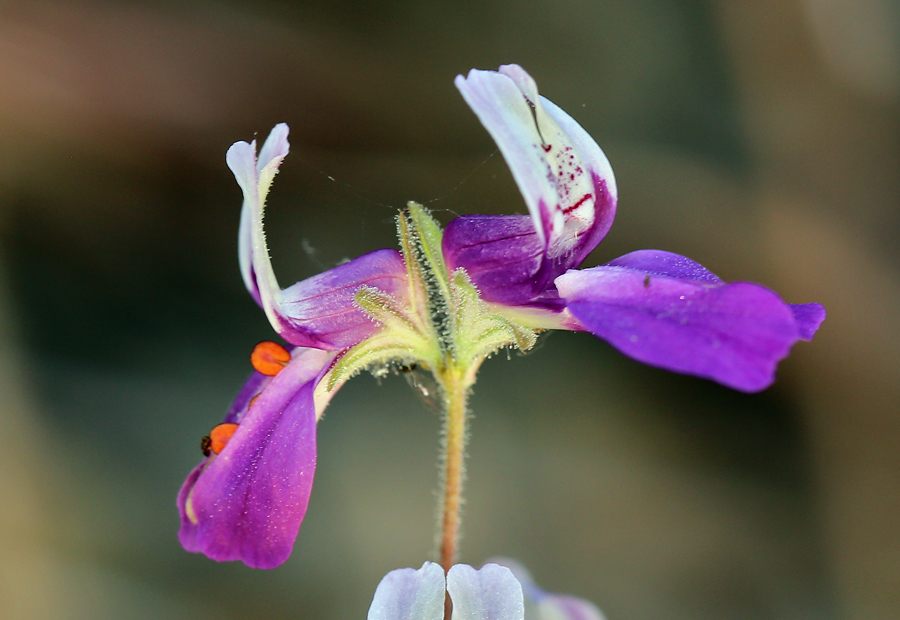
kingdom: Plantae
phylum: Tracheophyta
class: Magnoliopsida
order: Lamiales
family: Plantaginaceae
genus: Collinsia
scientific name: Collinsia heterophylla
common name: Chinese-houses
